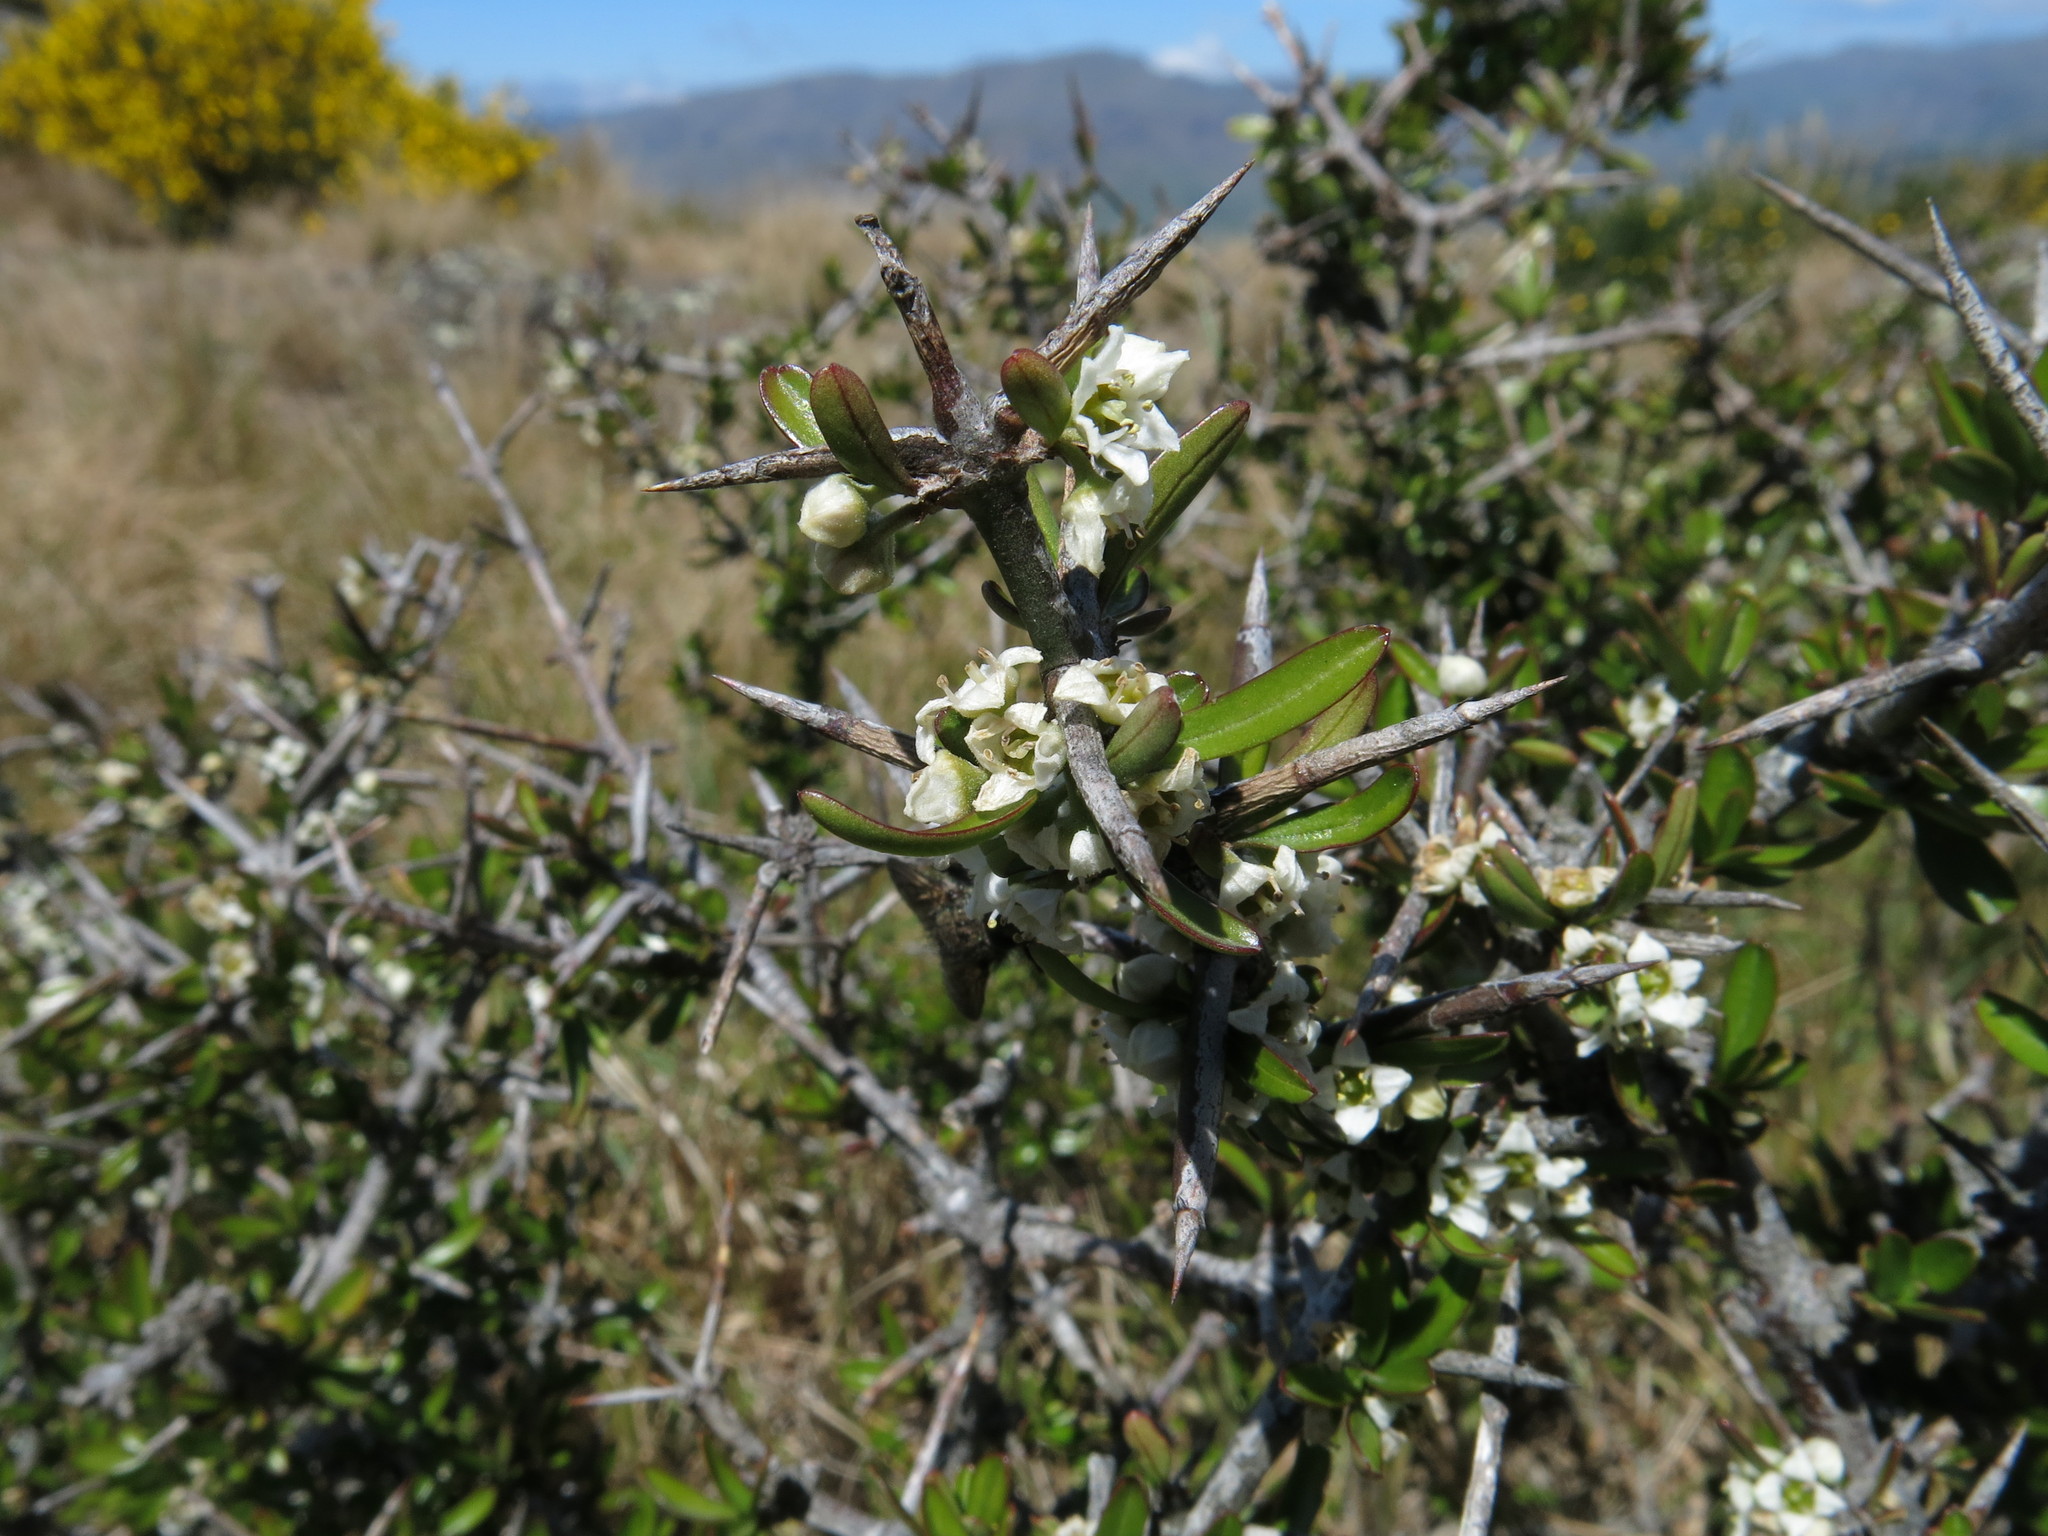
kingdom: Plantae
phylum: Tracheophyta
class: Magnoliopsida
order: Rosales
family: Rhamnaceae
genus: Discaria
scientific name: Discaria toumatou
